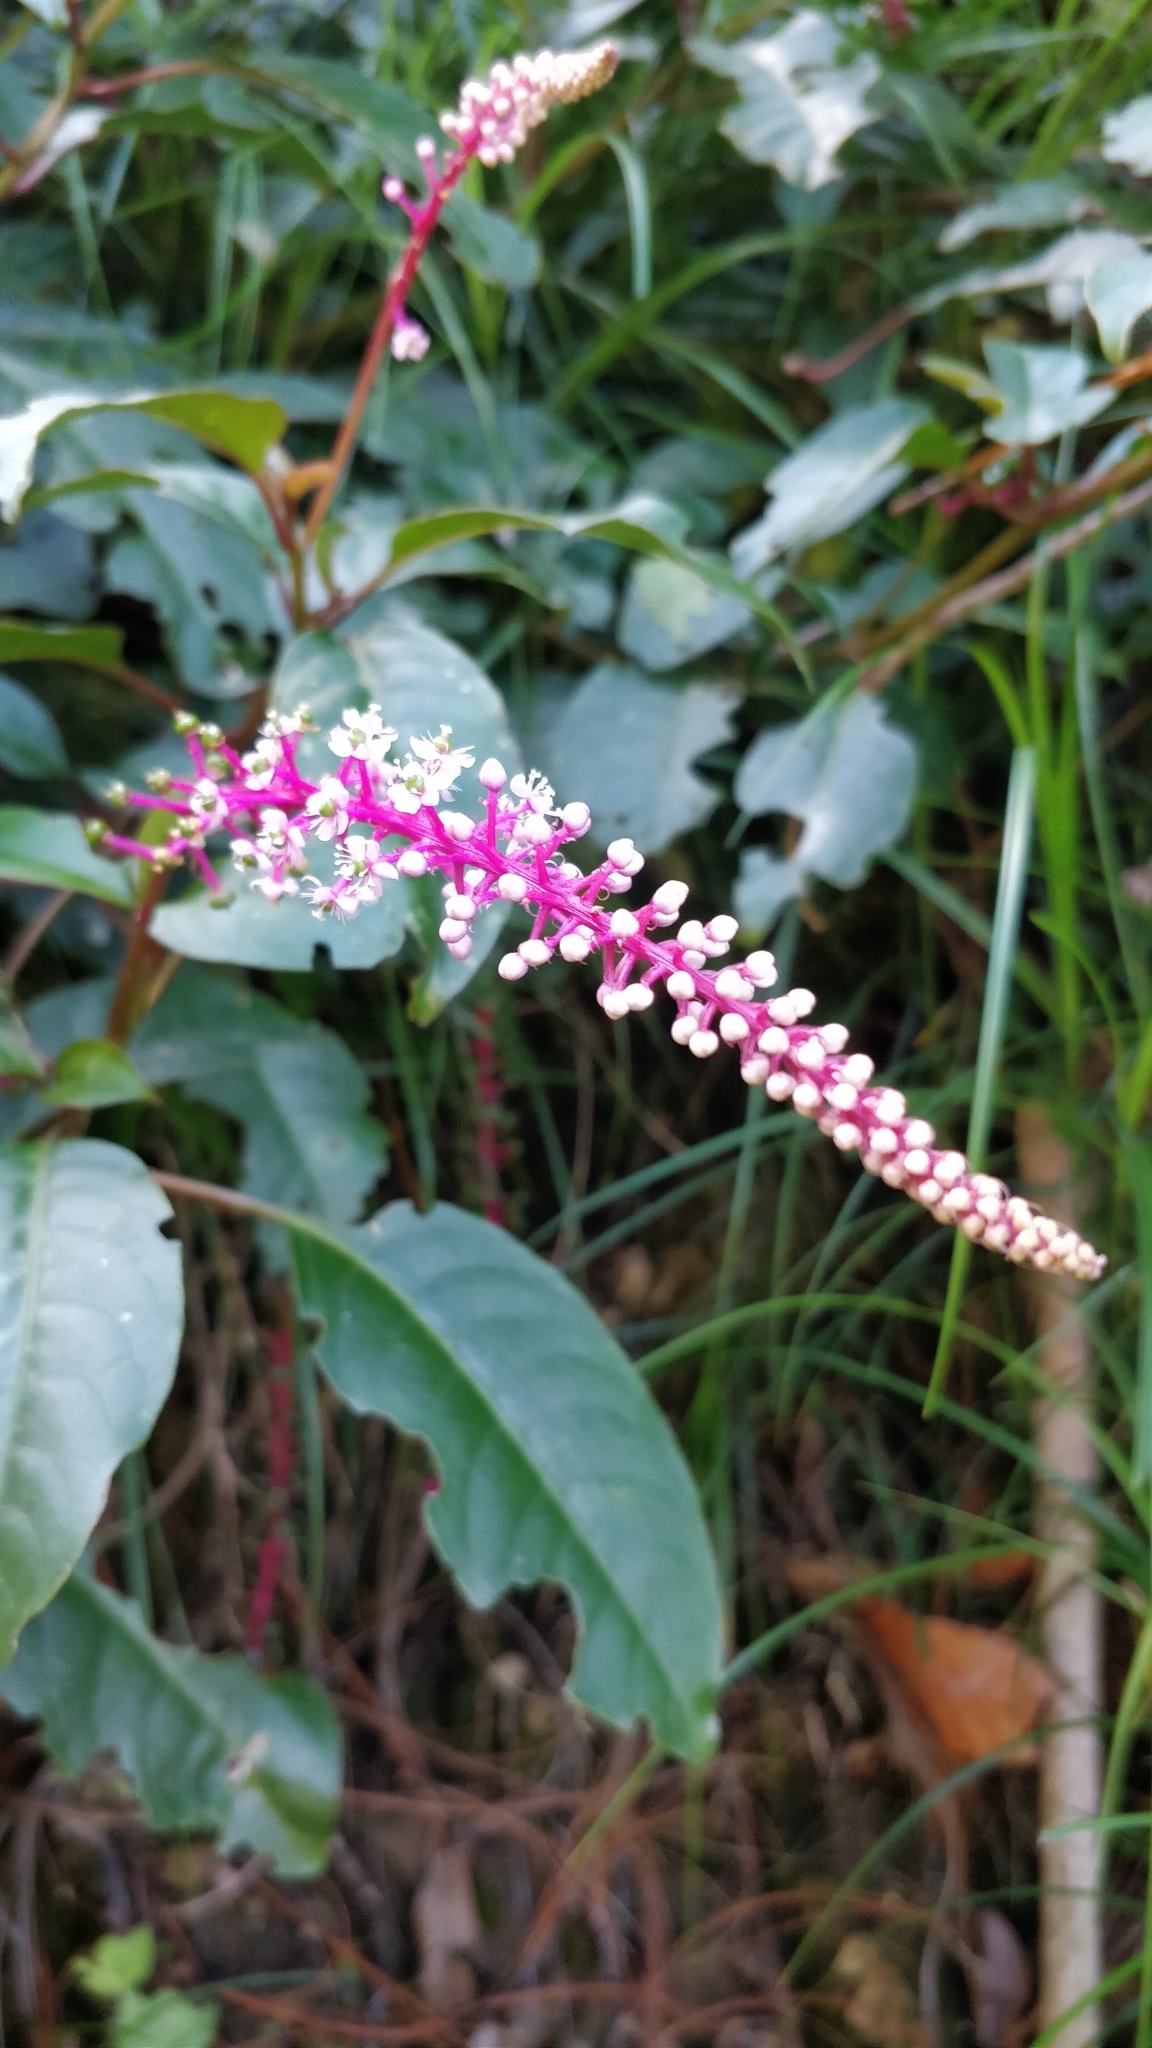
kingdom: Plantae
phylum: Tracheophyta
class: Magnoliopsida
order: Caryophyllales
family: Phytolaccaceae
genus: Phytolacca
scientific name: Phytolacca rivinoides
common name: Venezuelan pokeweed
